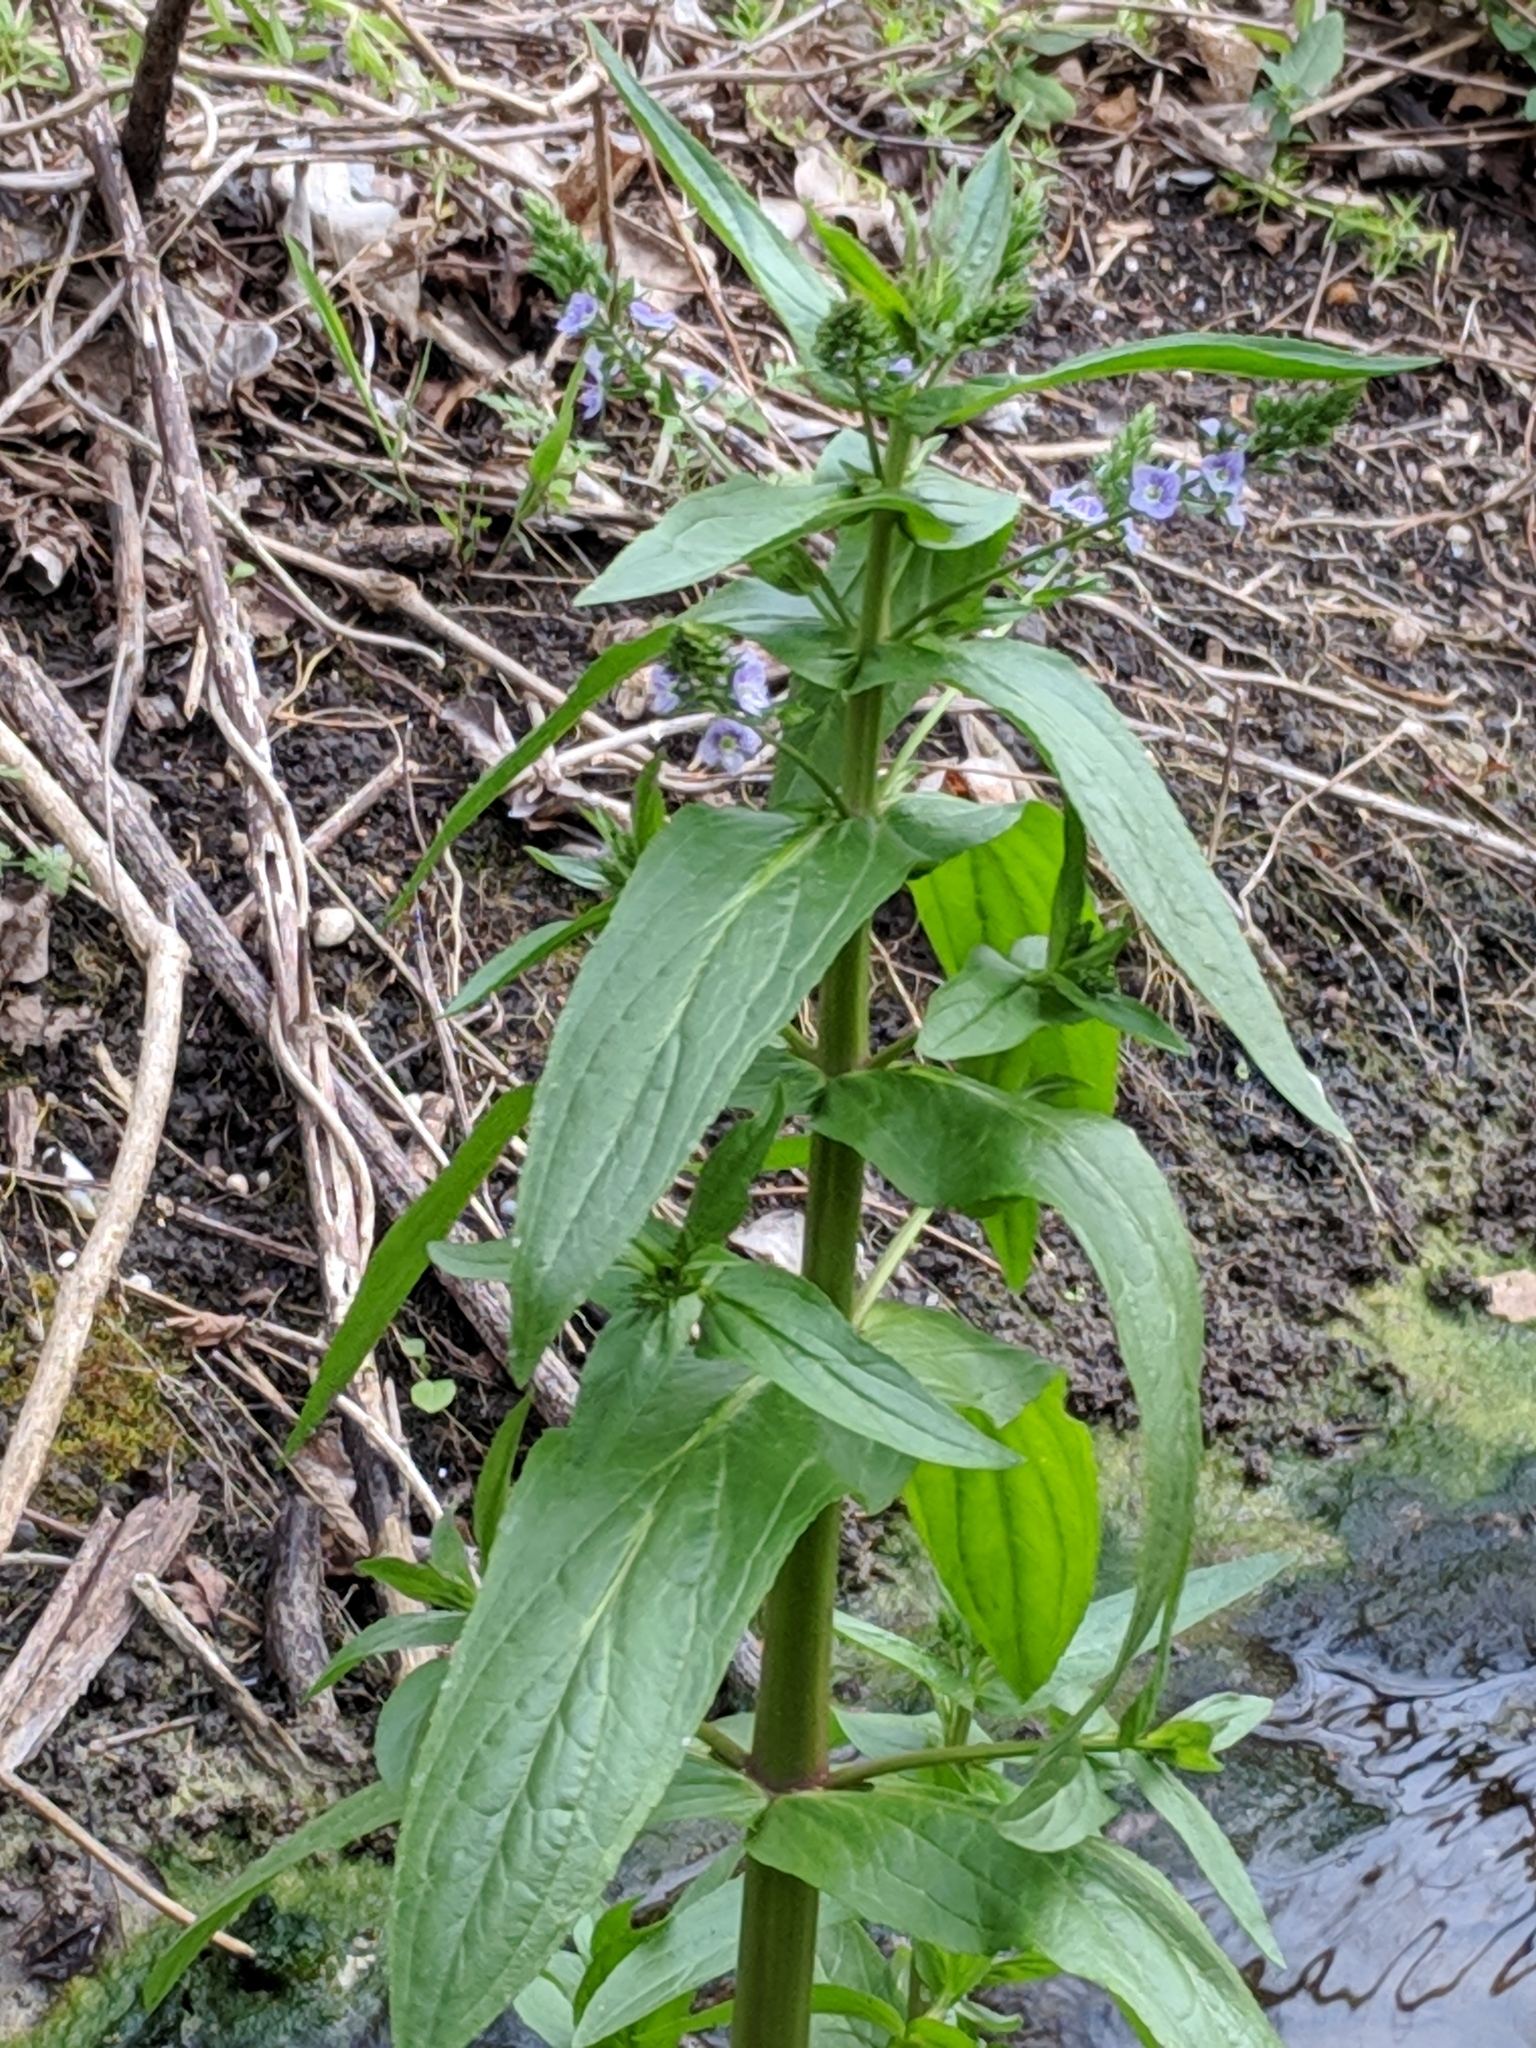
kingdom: Plantae
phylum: Tracheophyta
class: Magnoliopsida
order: Lamiales
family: Plantaginaceae
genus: Veronica
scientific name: Veronica anagallis-aquatica
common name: Water speedwell
